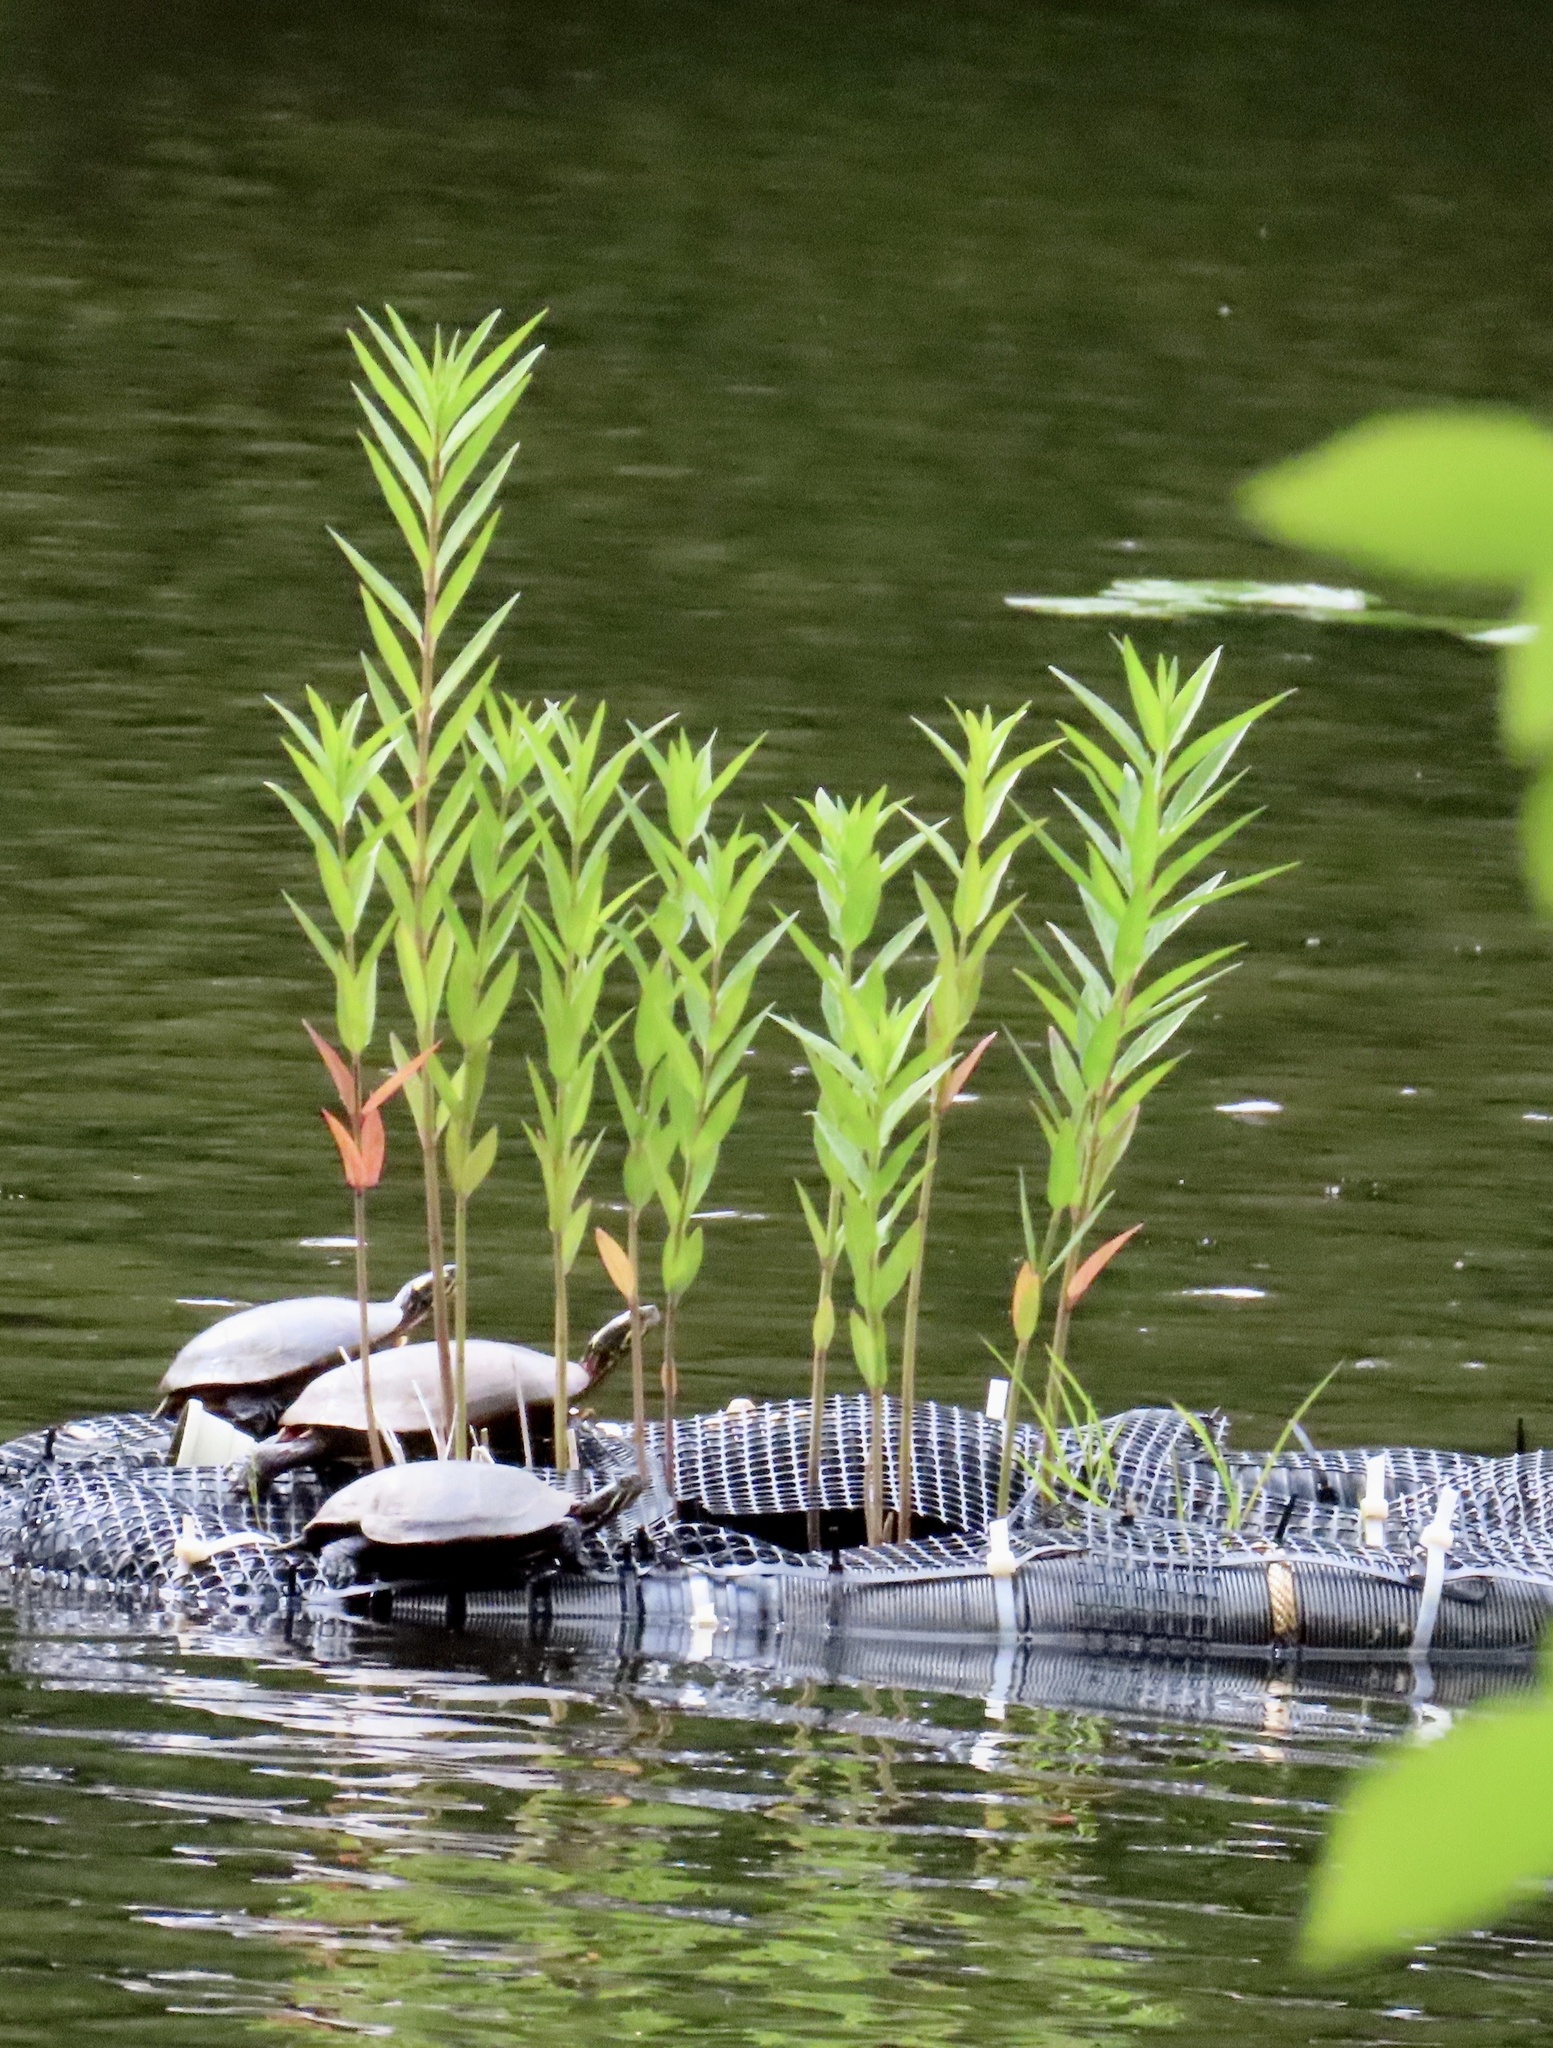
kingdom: Animalia
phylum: Chordata
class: Testudines
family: Emydidae
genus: Chrysemys
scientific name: Chrysemys picta
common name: Painted turtle
